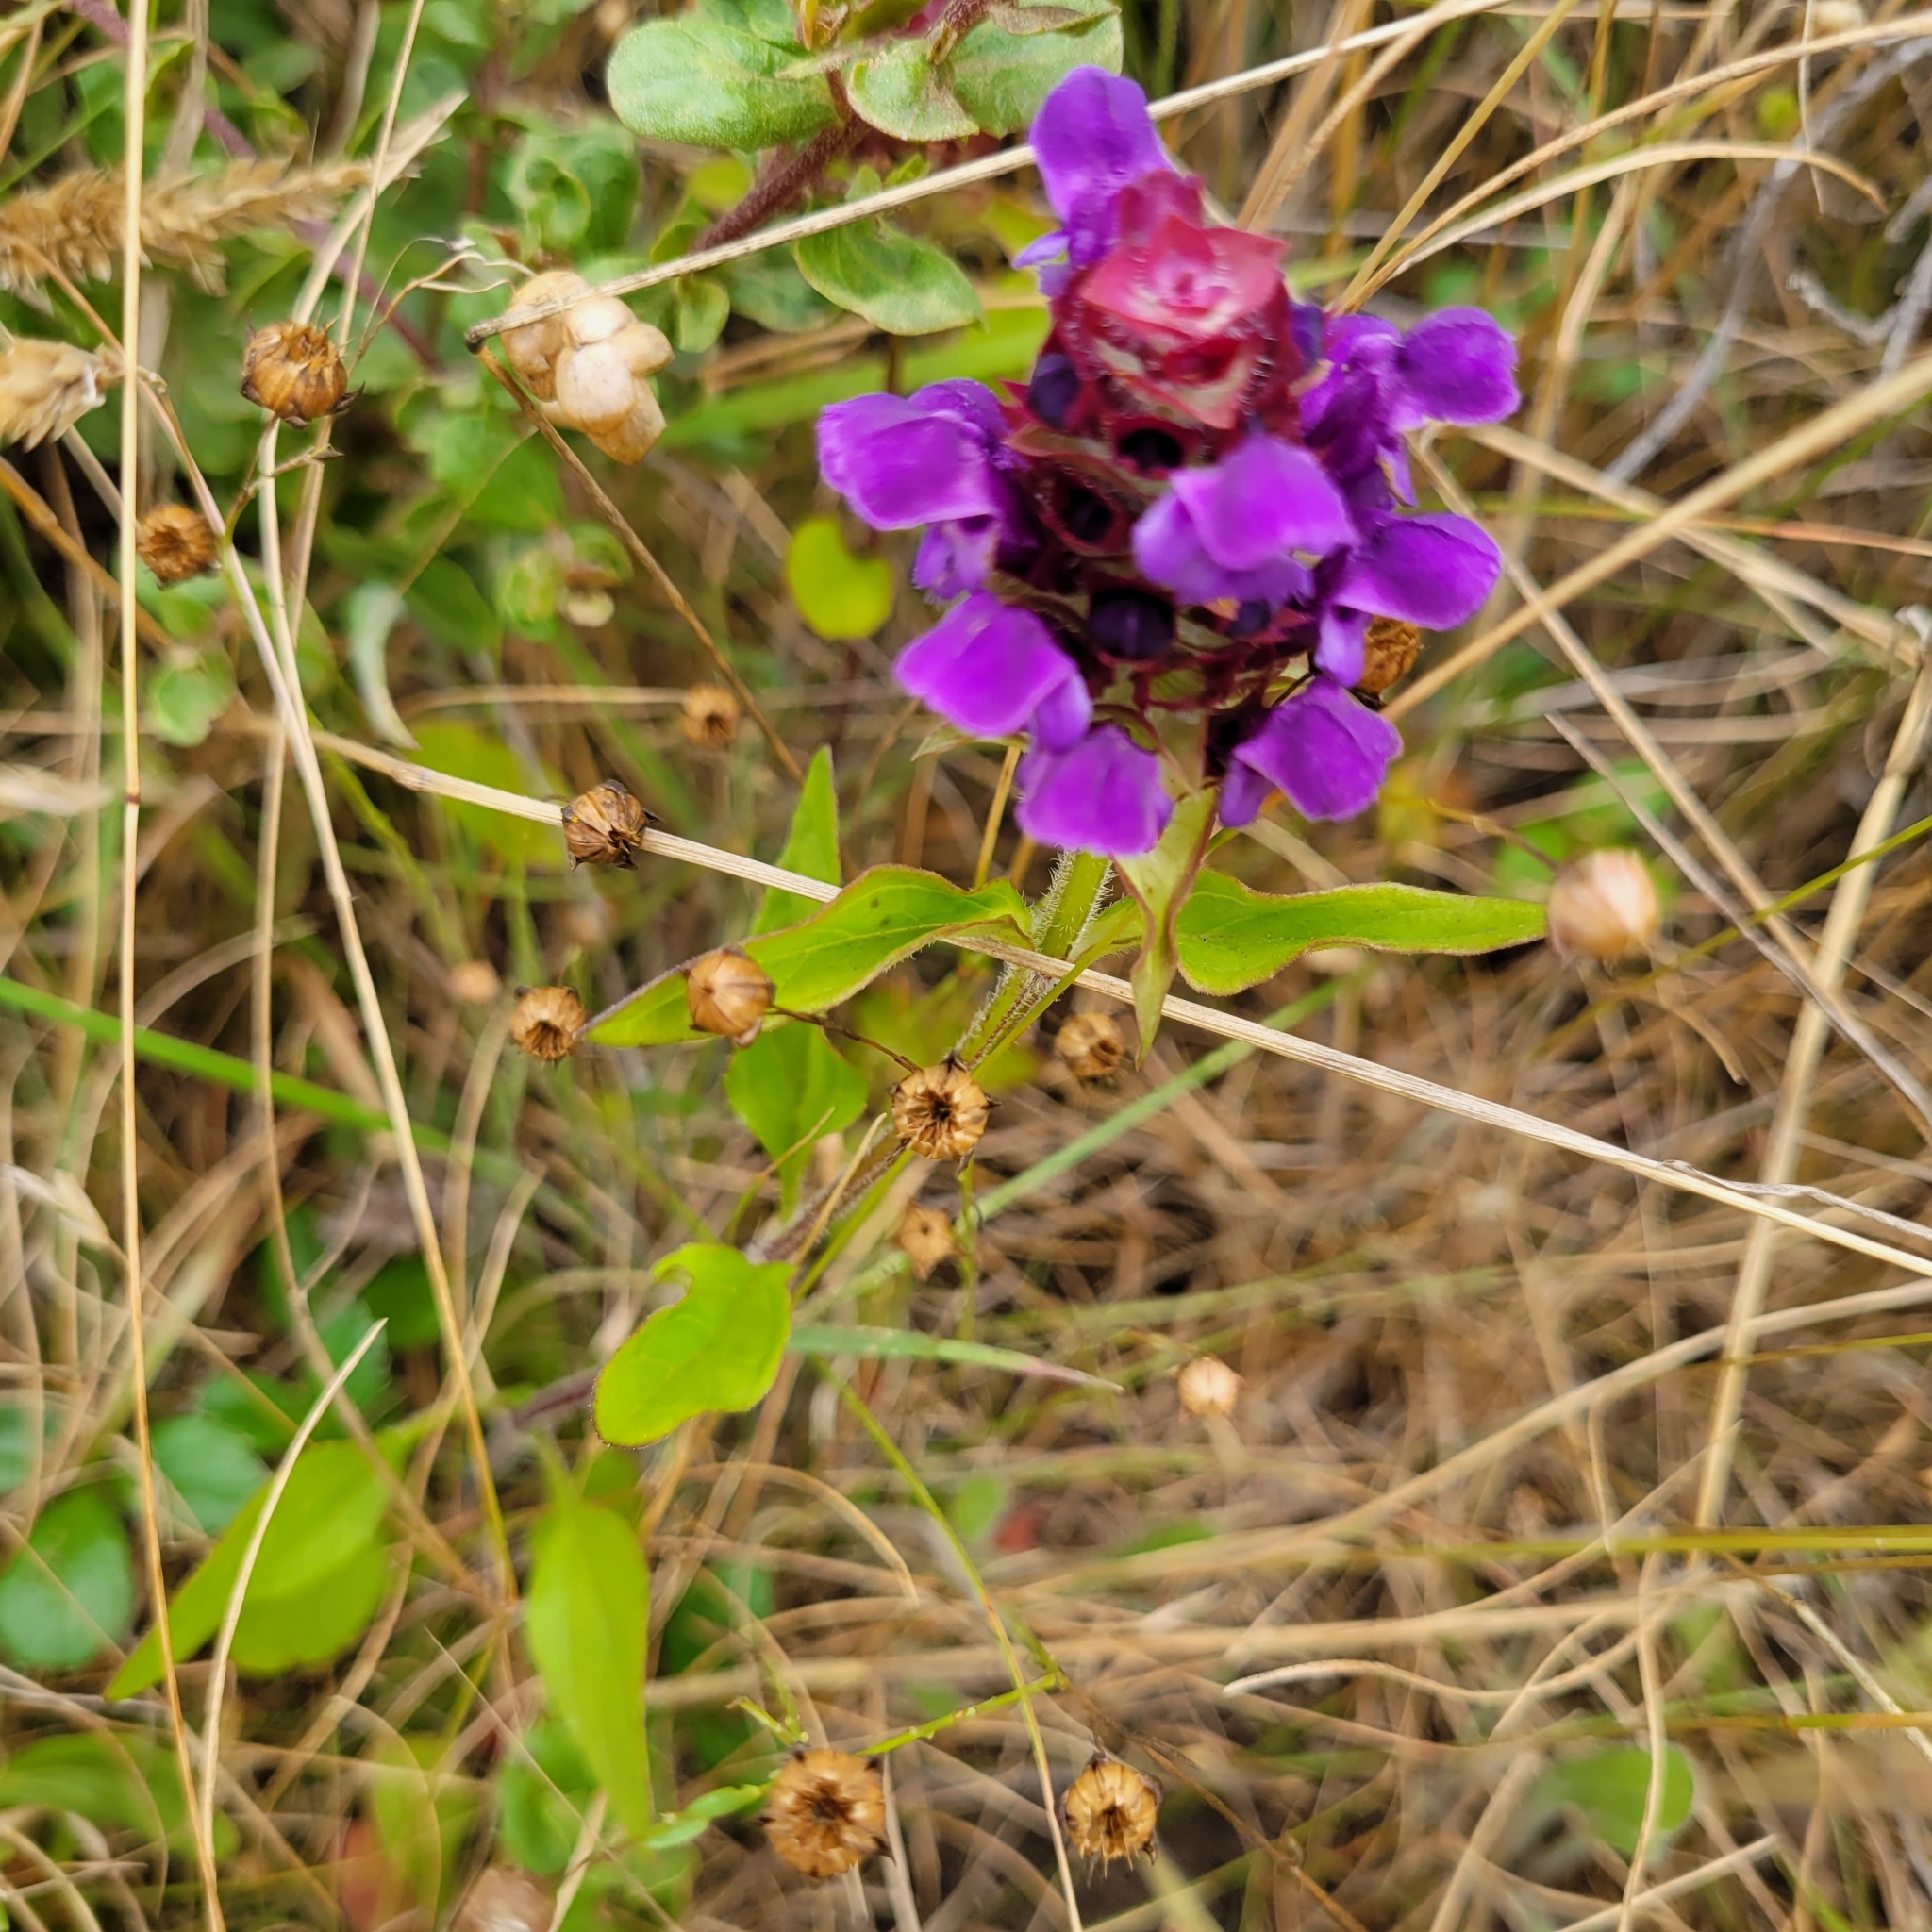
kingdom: Plantae
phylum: Tracheophyta
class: Magnoliopsida
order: Lamiales
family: Lamiaceae
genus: Prunella
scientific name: Prunella vulgaris
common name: Heal-all
